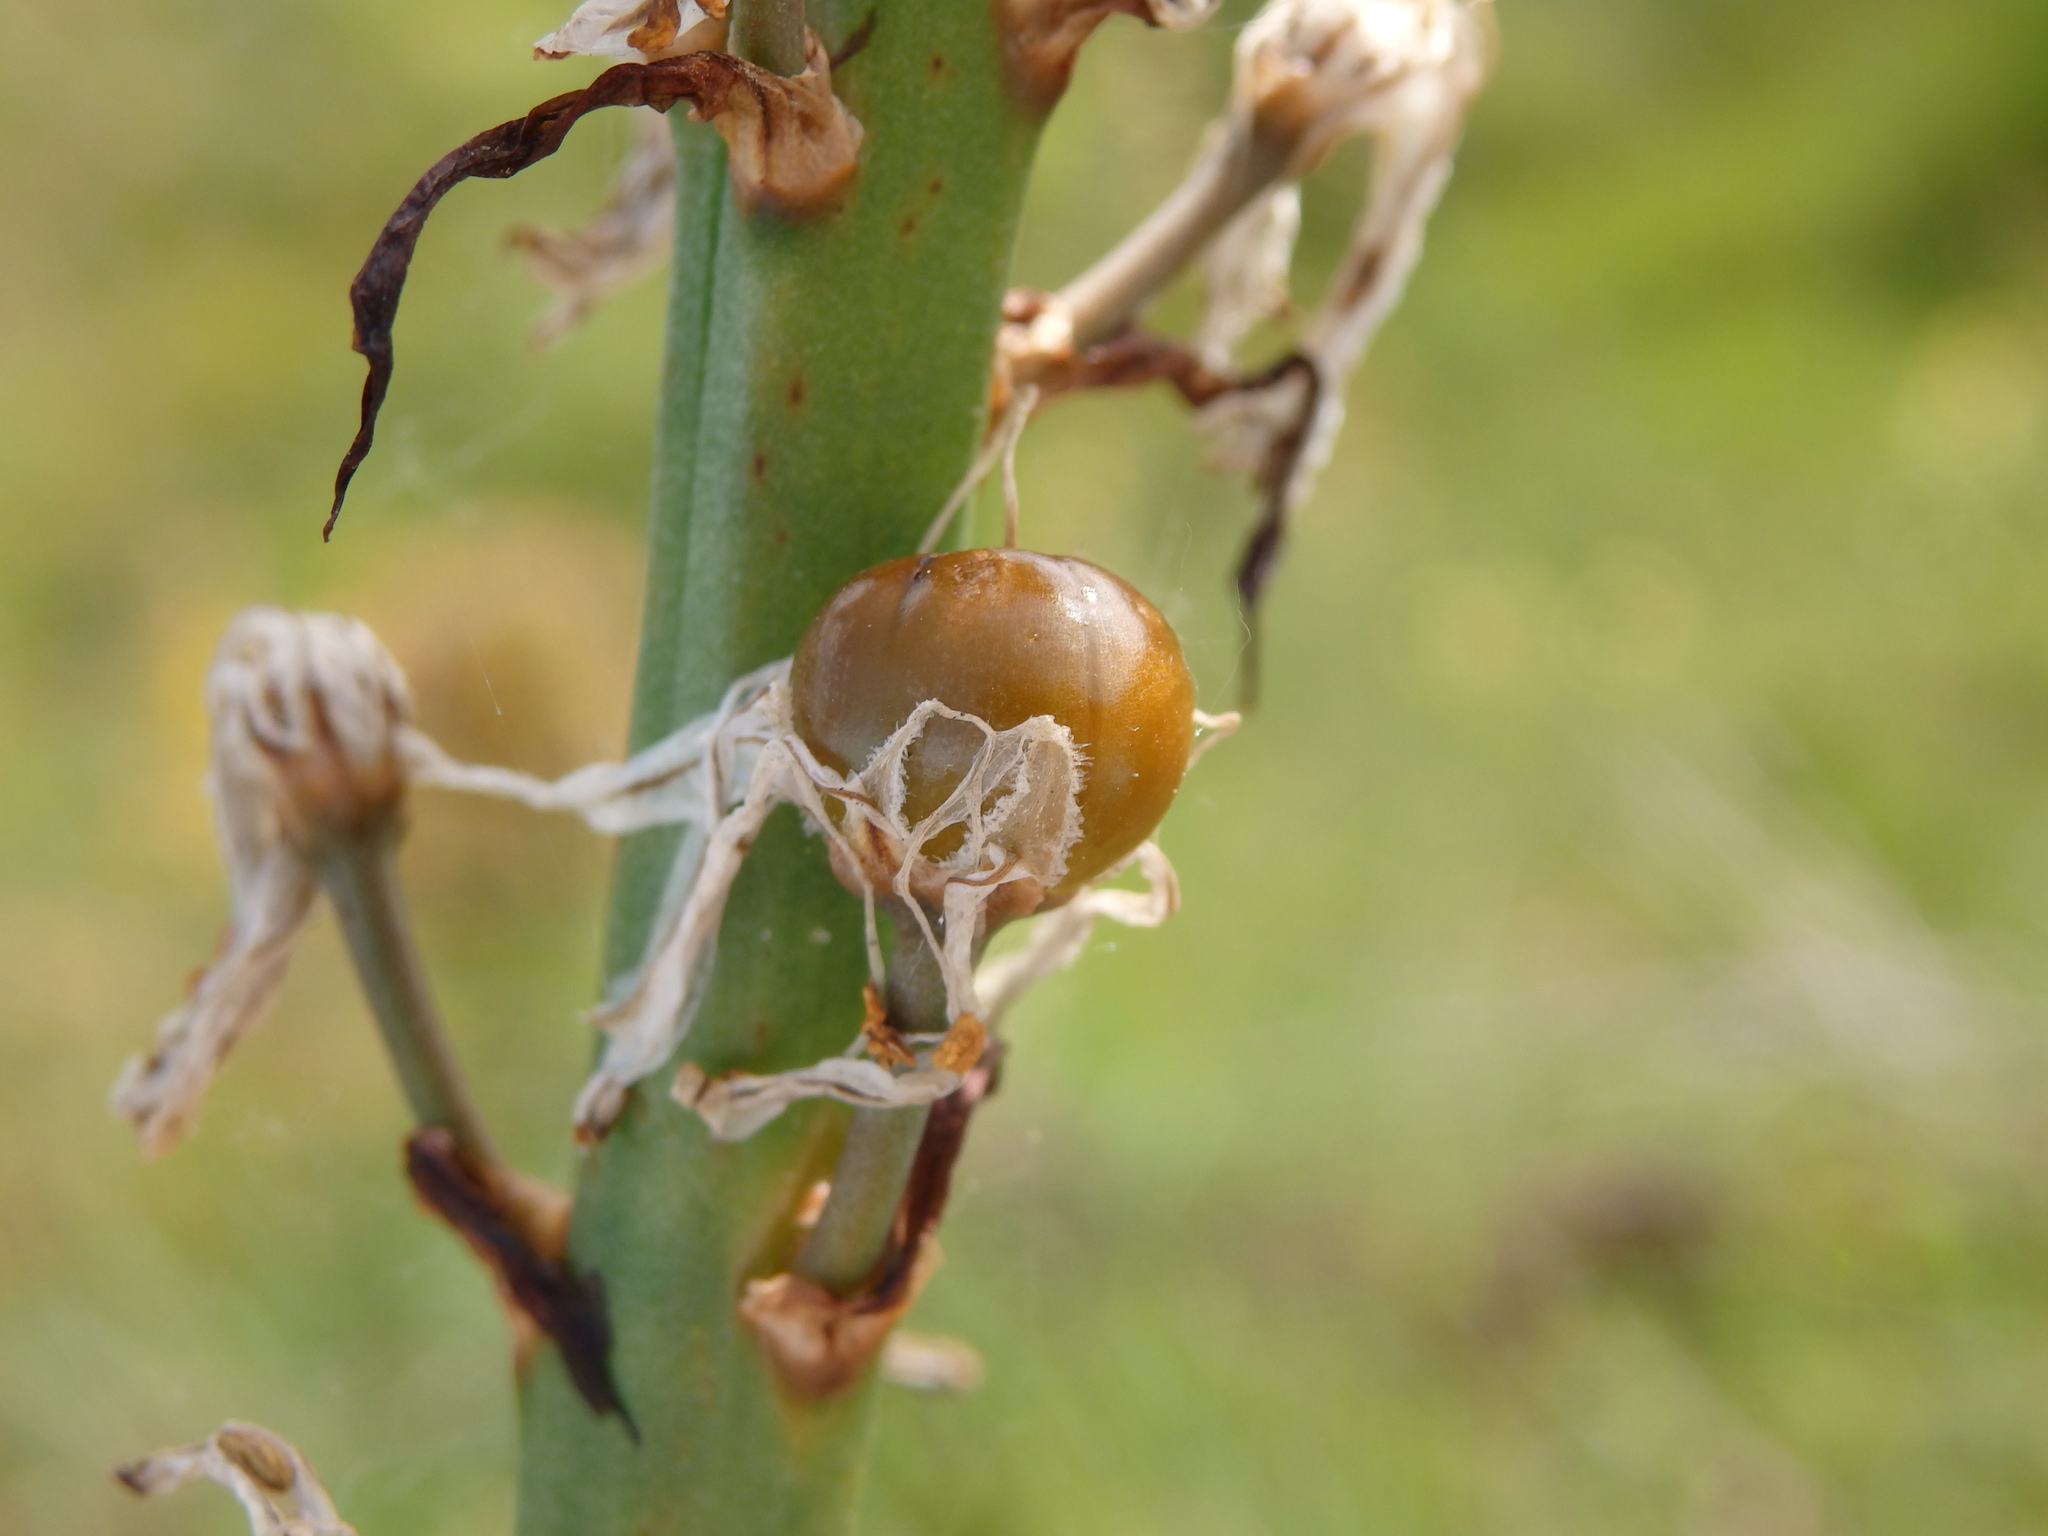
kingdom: Plantae
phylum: Tracheophyta
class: Liliopsida
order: Asparagales
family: Asphodelaceae
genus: Asphodelus
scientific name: Asphodelus macrocarpus
